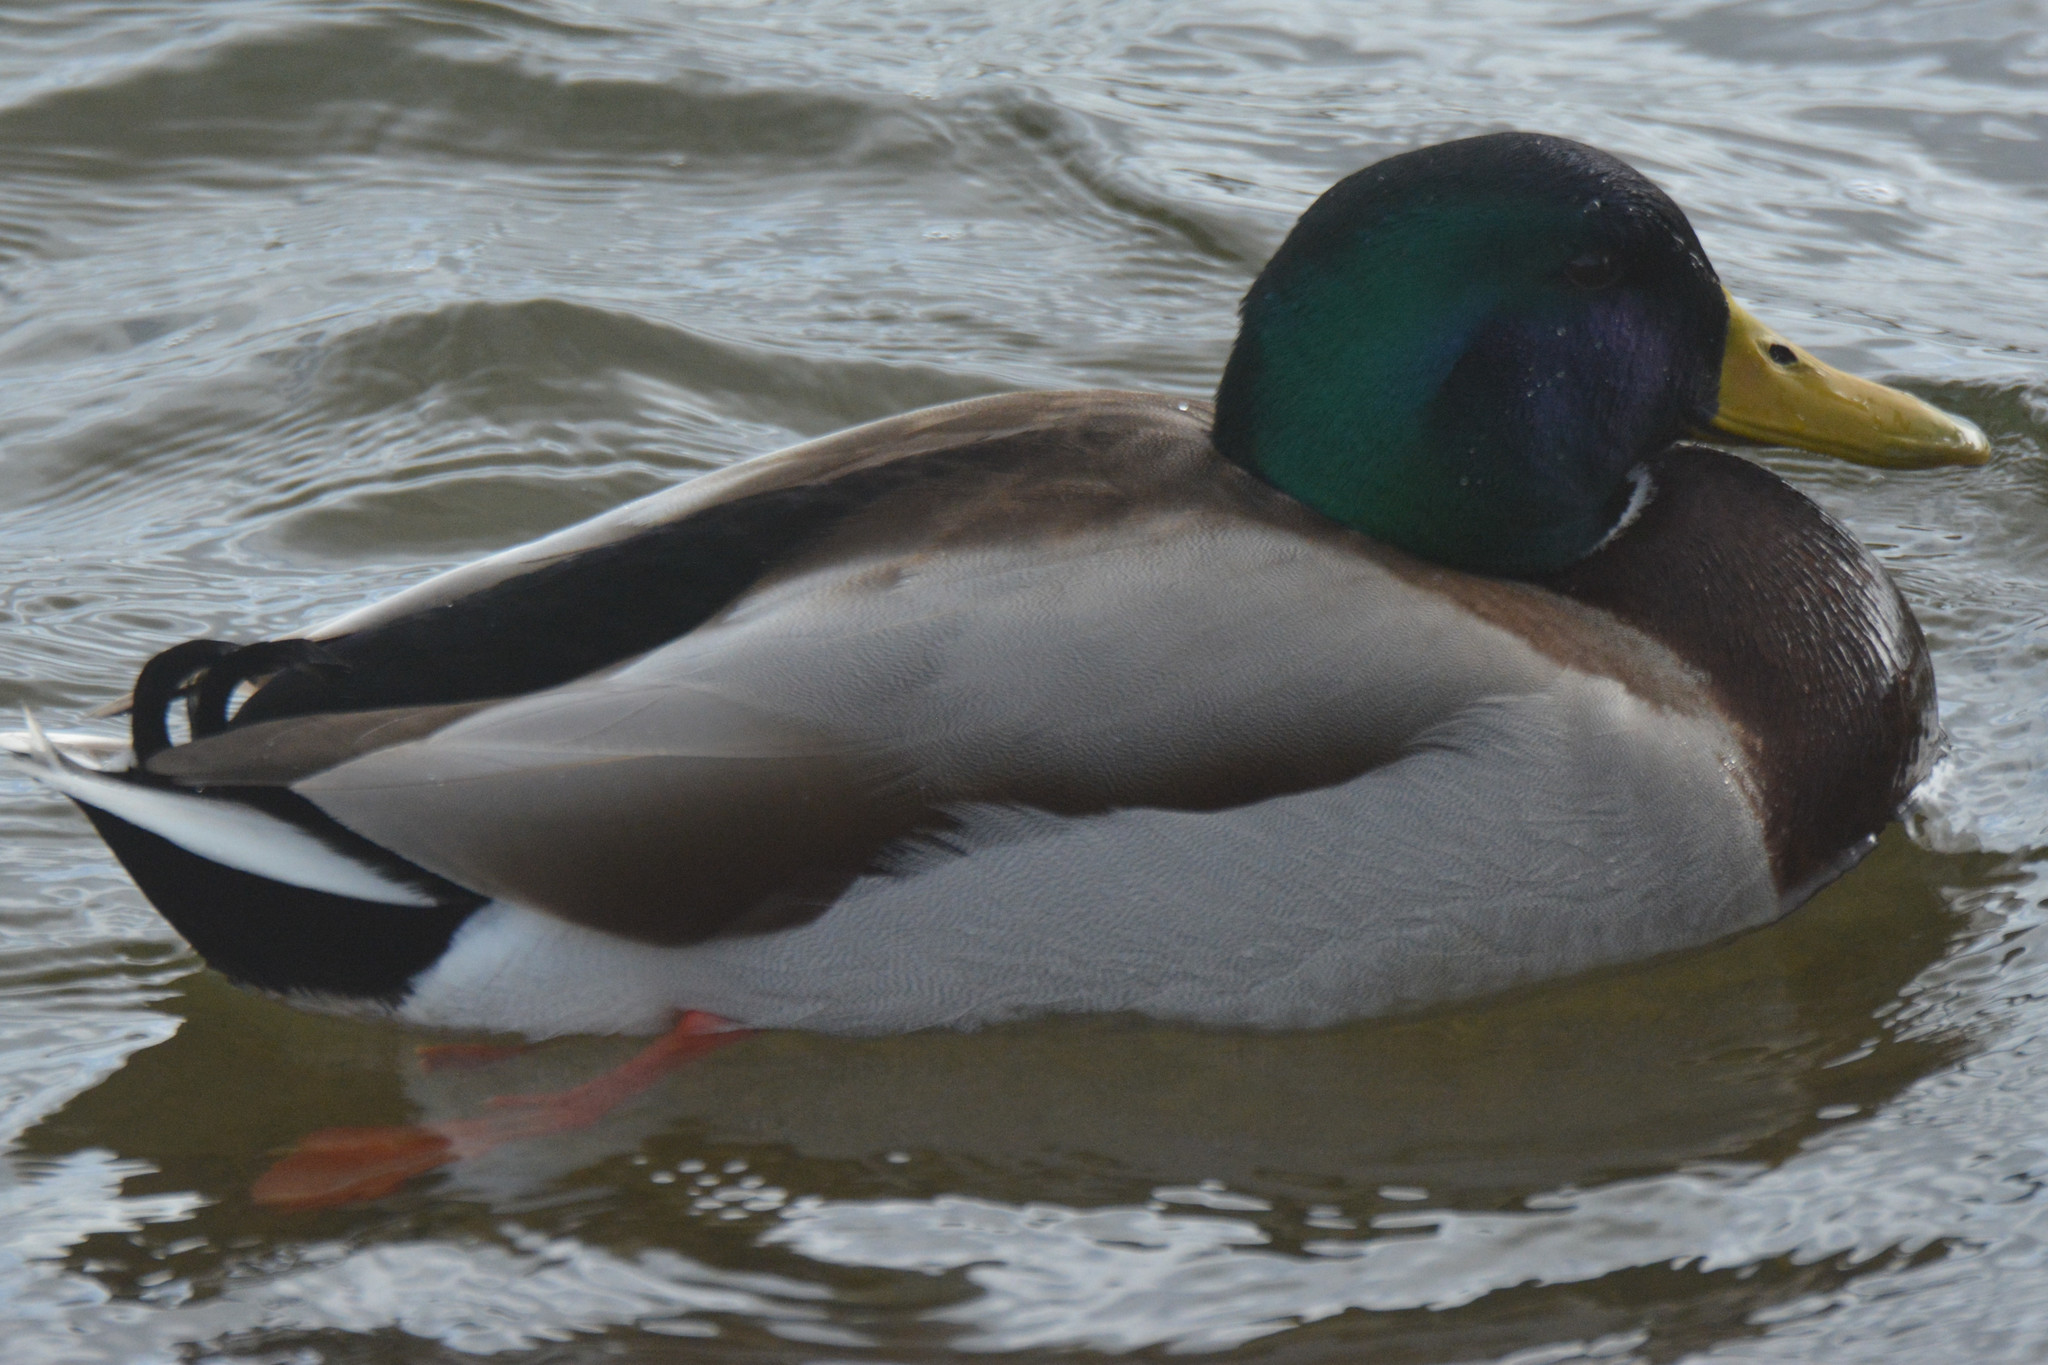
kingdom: Animalia
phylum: Chordata
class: Aves
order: Anseriformes
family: Anatidae
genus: Anas
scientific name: Anas platyrhynchos
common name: Mallard
